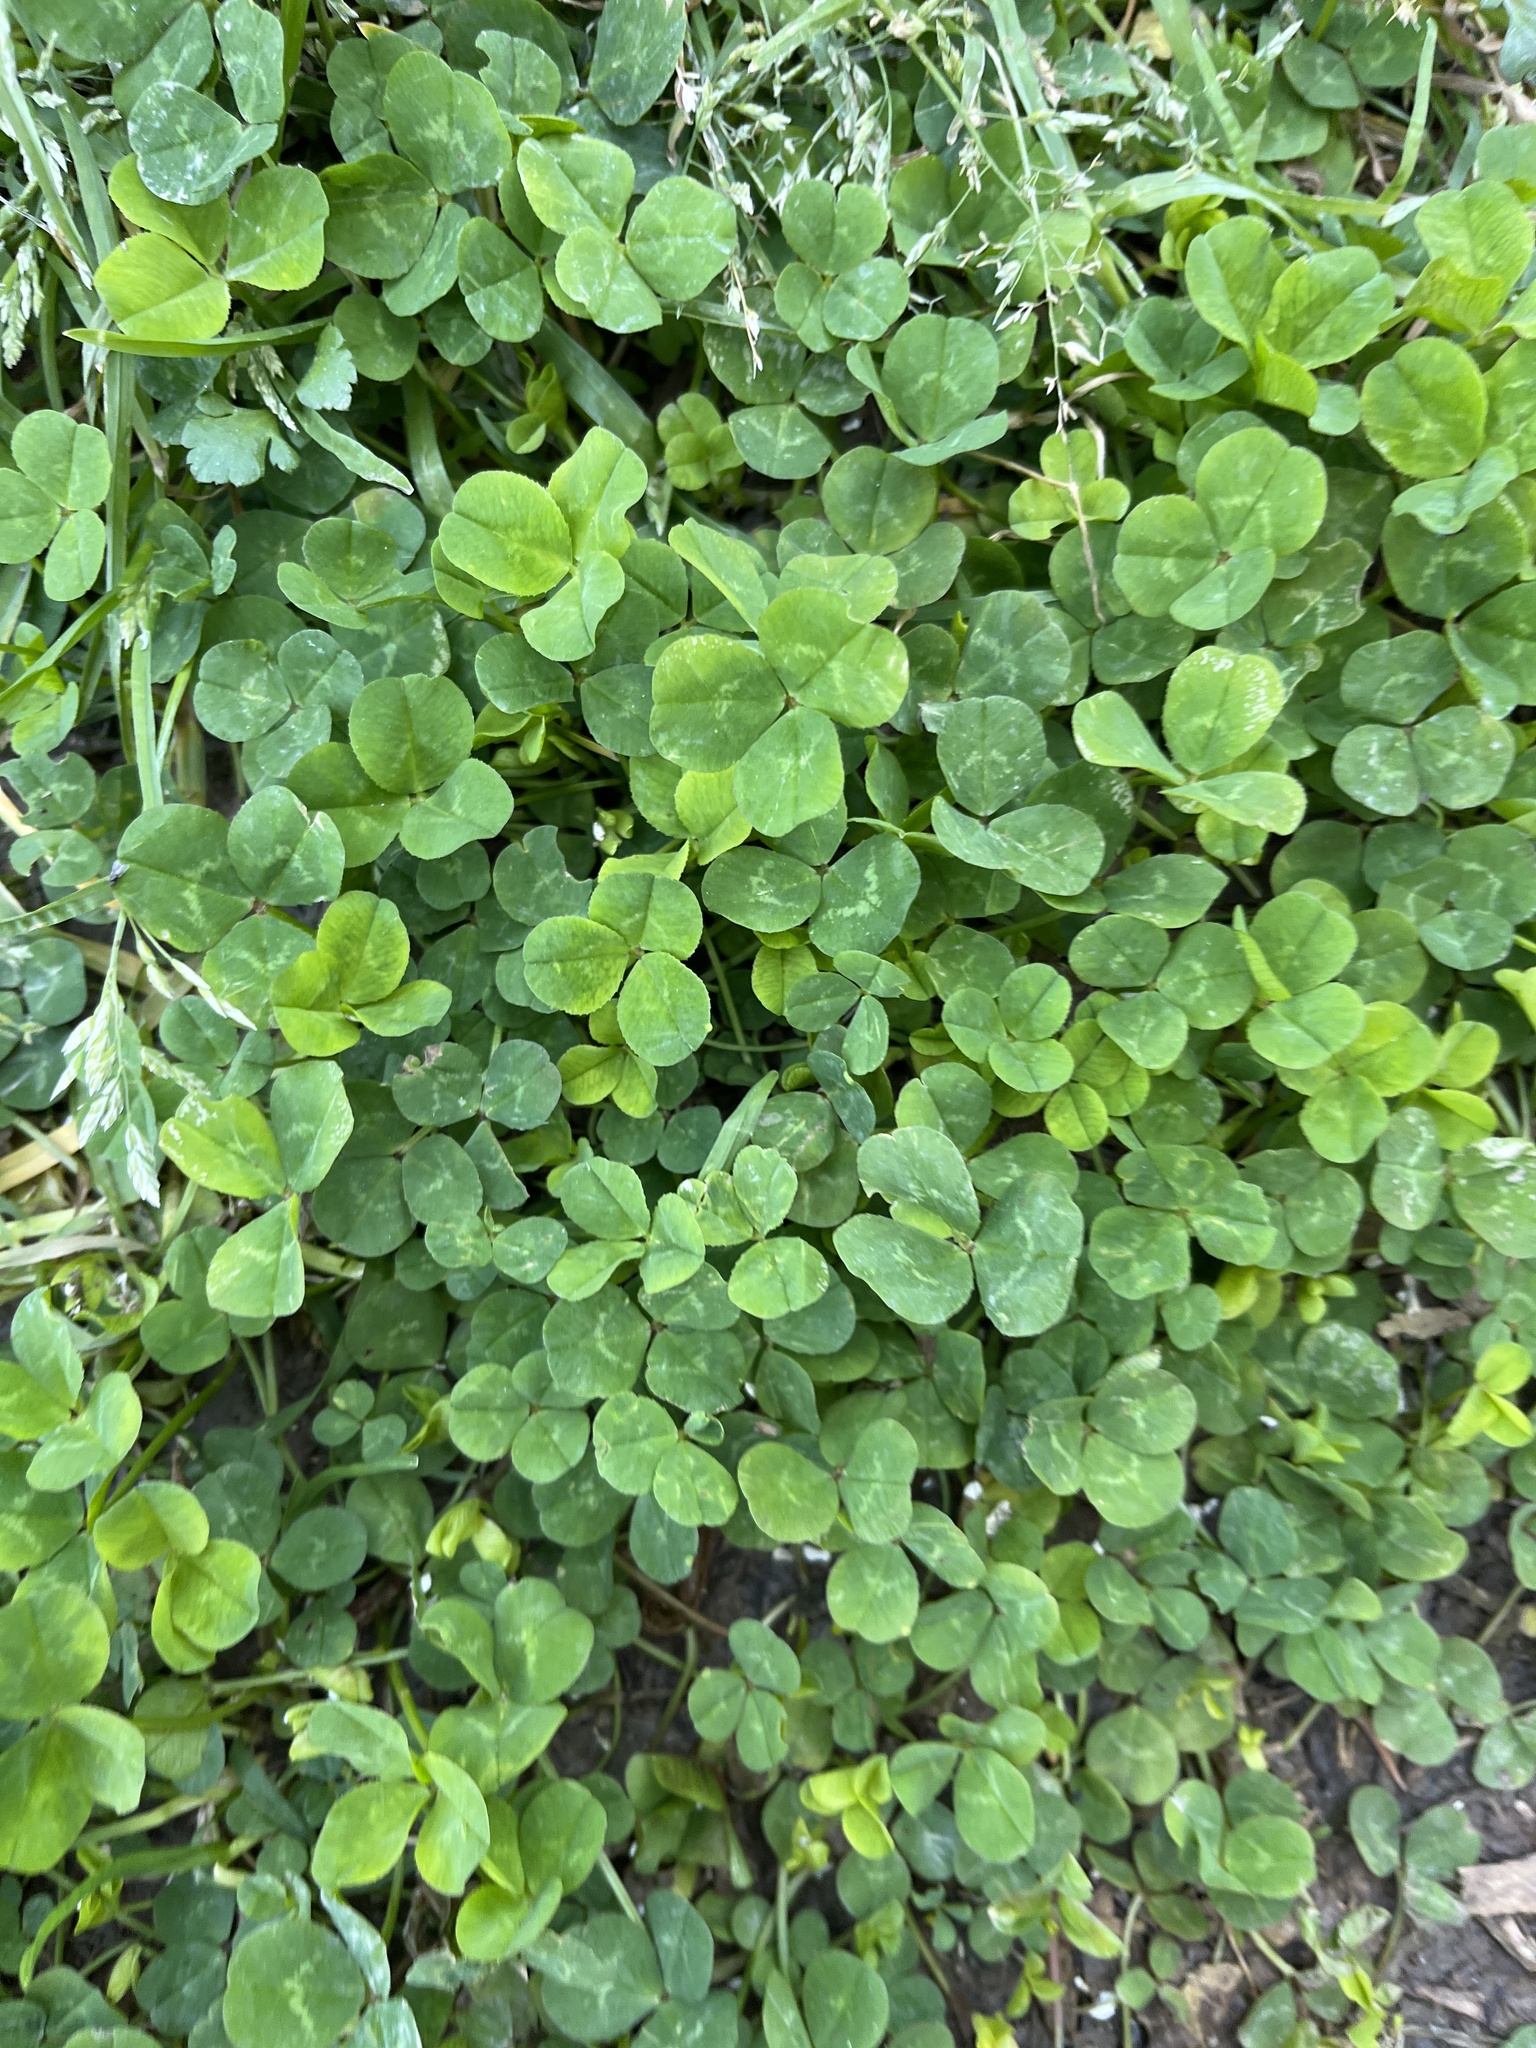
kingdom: Plantae
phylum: Tracheophyta
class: Magnoliopsida
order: Fabales
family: Fabaceae
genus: Trifolium
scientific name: Trifolium repens
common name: White clover
